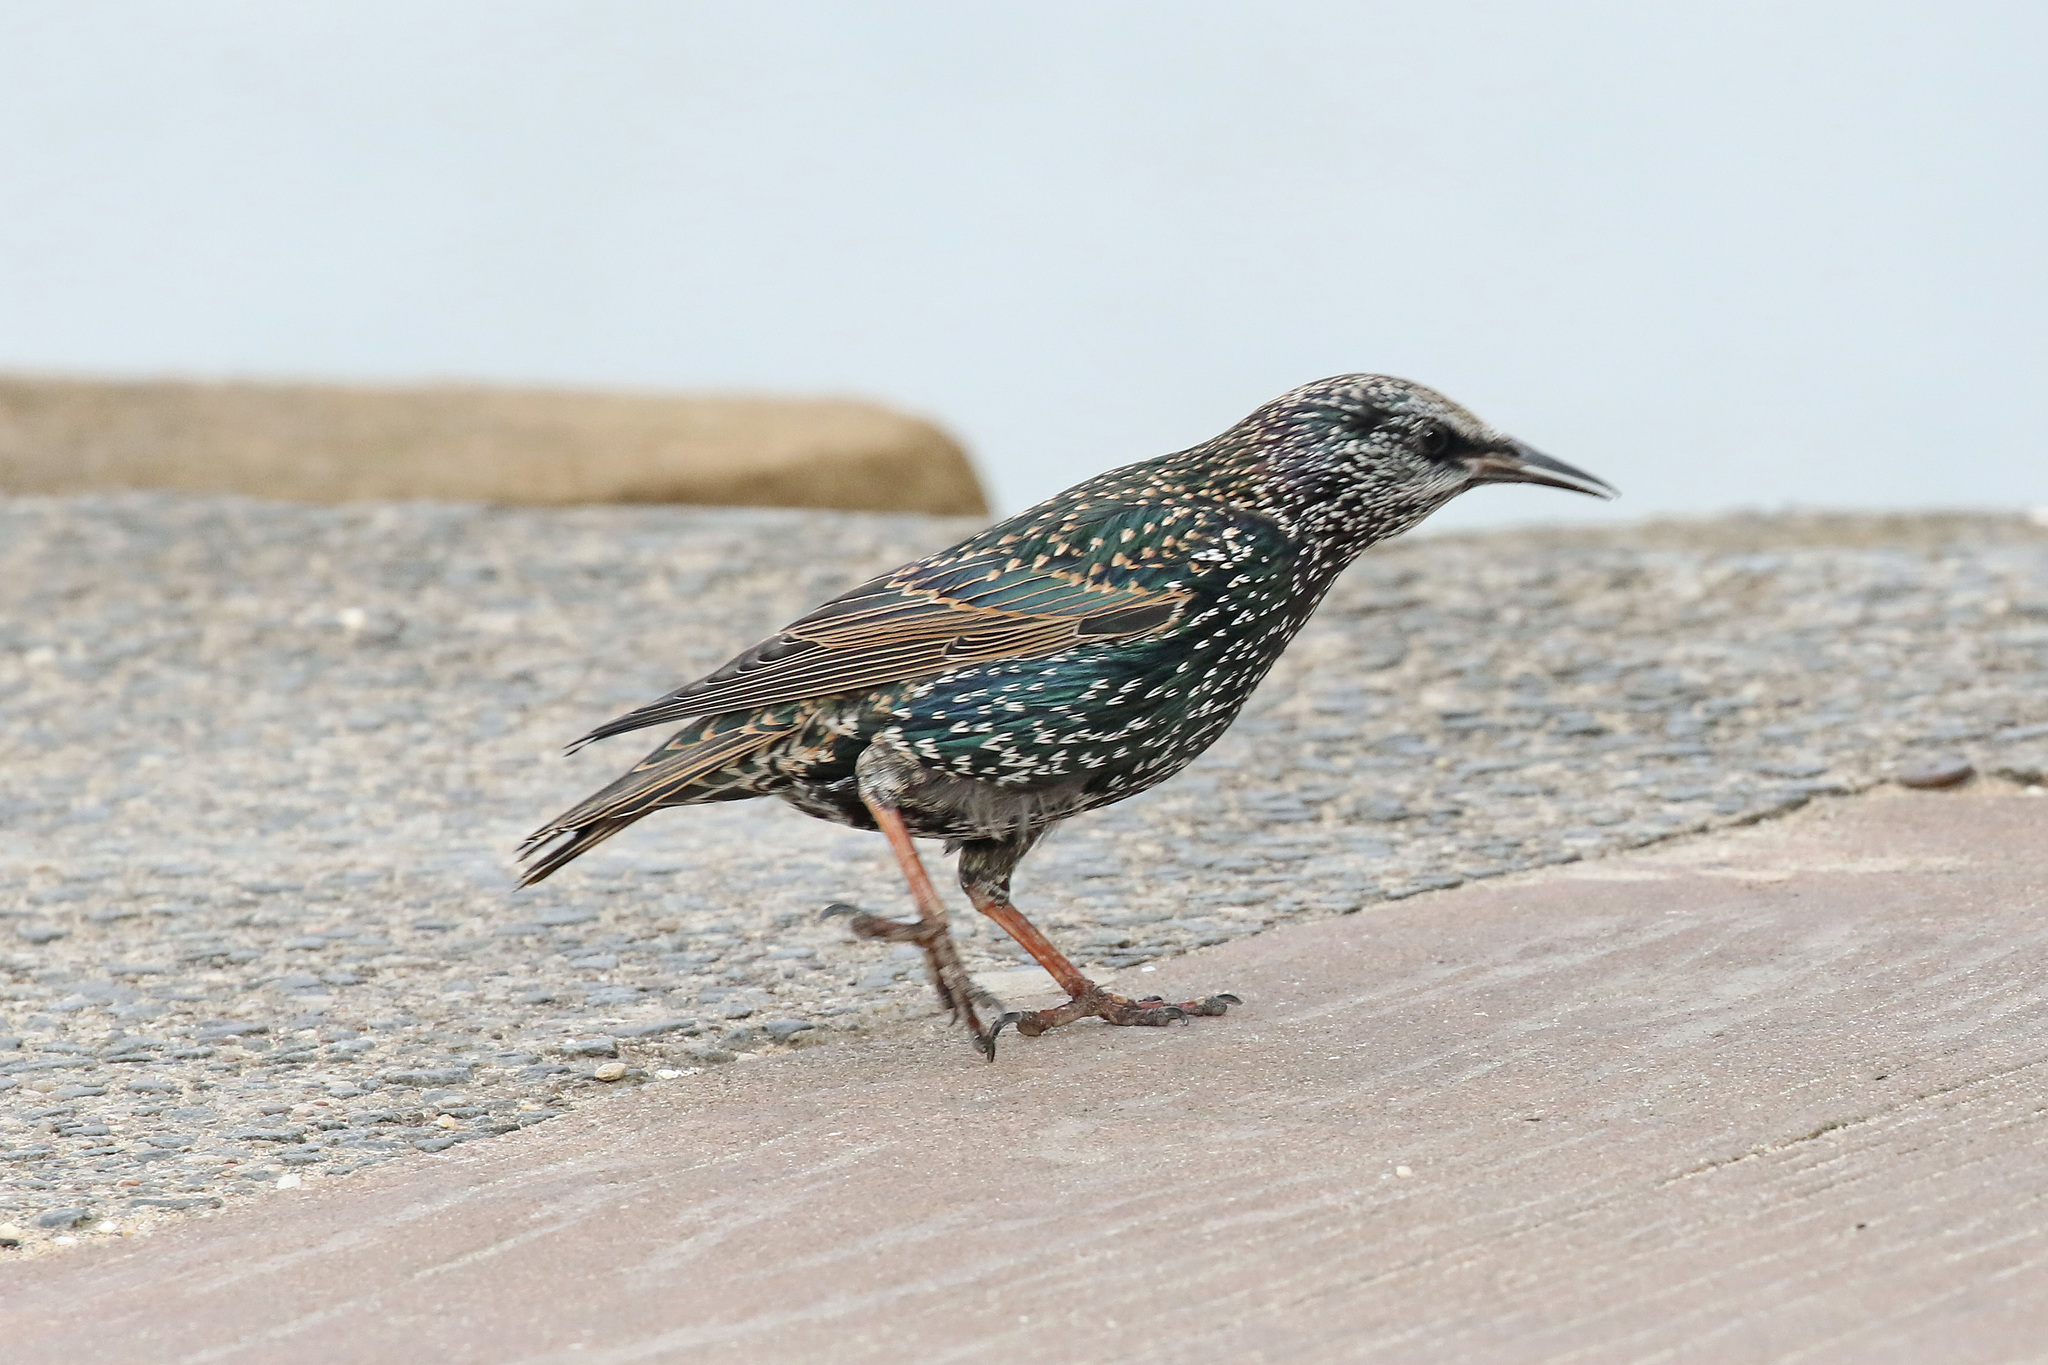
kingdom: Animalia
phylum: Chordata
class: Aves
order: Passeriformes
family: Sturnidae
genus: Sturnus
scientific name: Sturnus vulgaris
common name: Common starling
